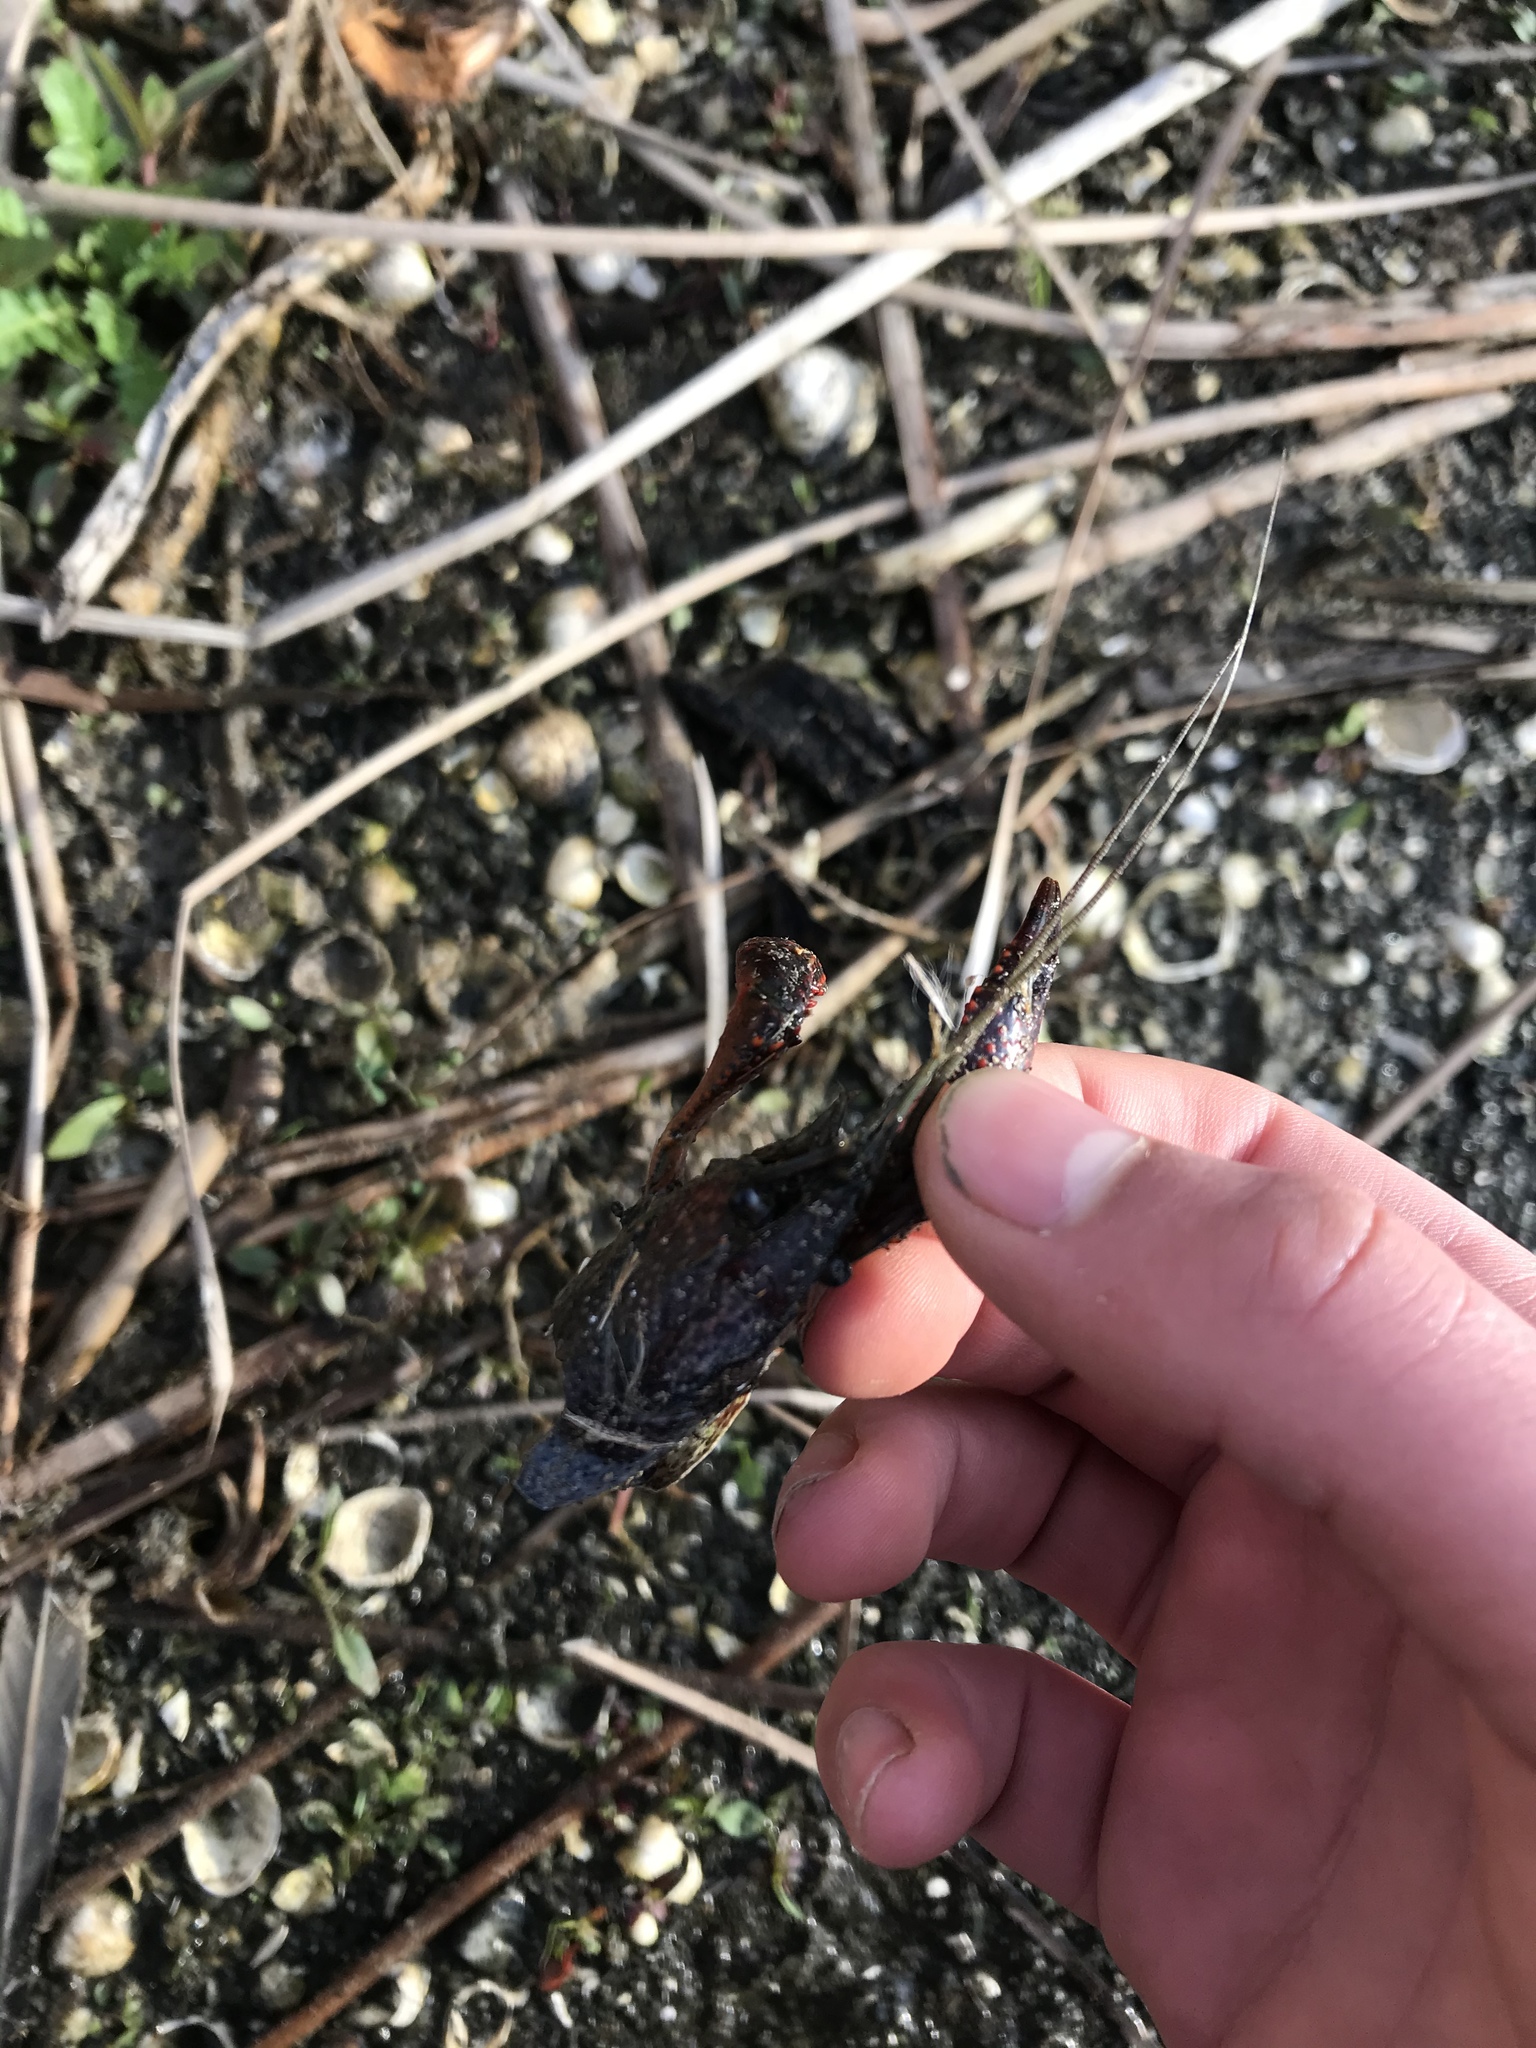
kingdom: Animalia
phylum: Arthropoda
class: Malacostraca
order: Decapoda
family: Cambaridae
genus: Procambarus
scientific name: Procambarus clarkii
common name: Red swamp crayfish
